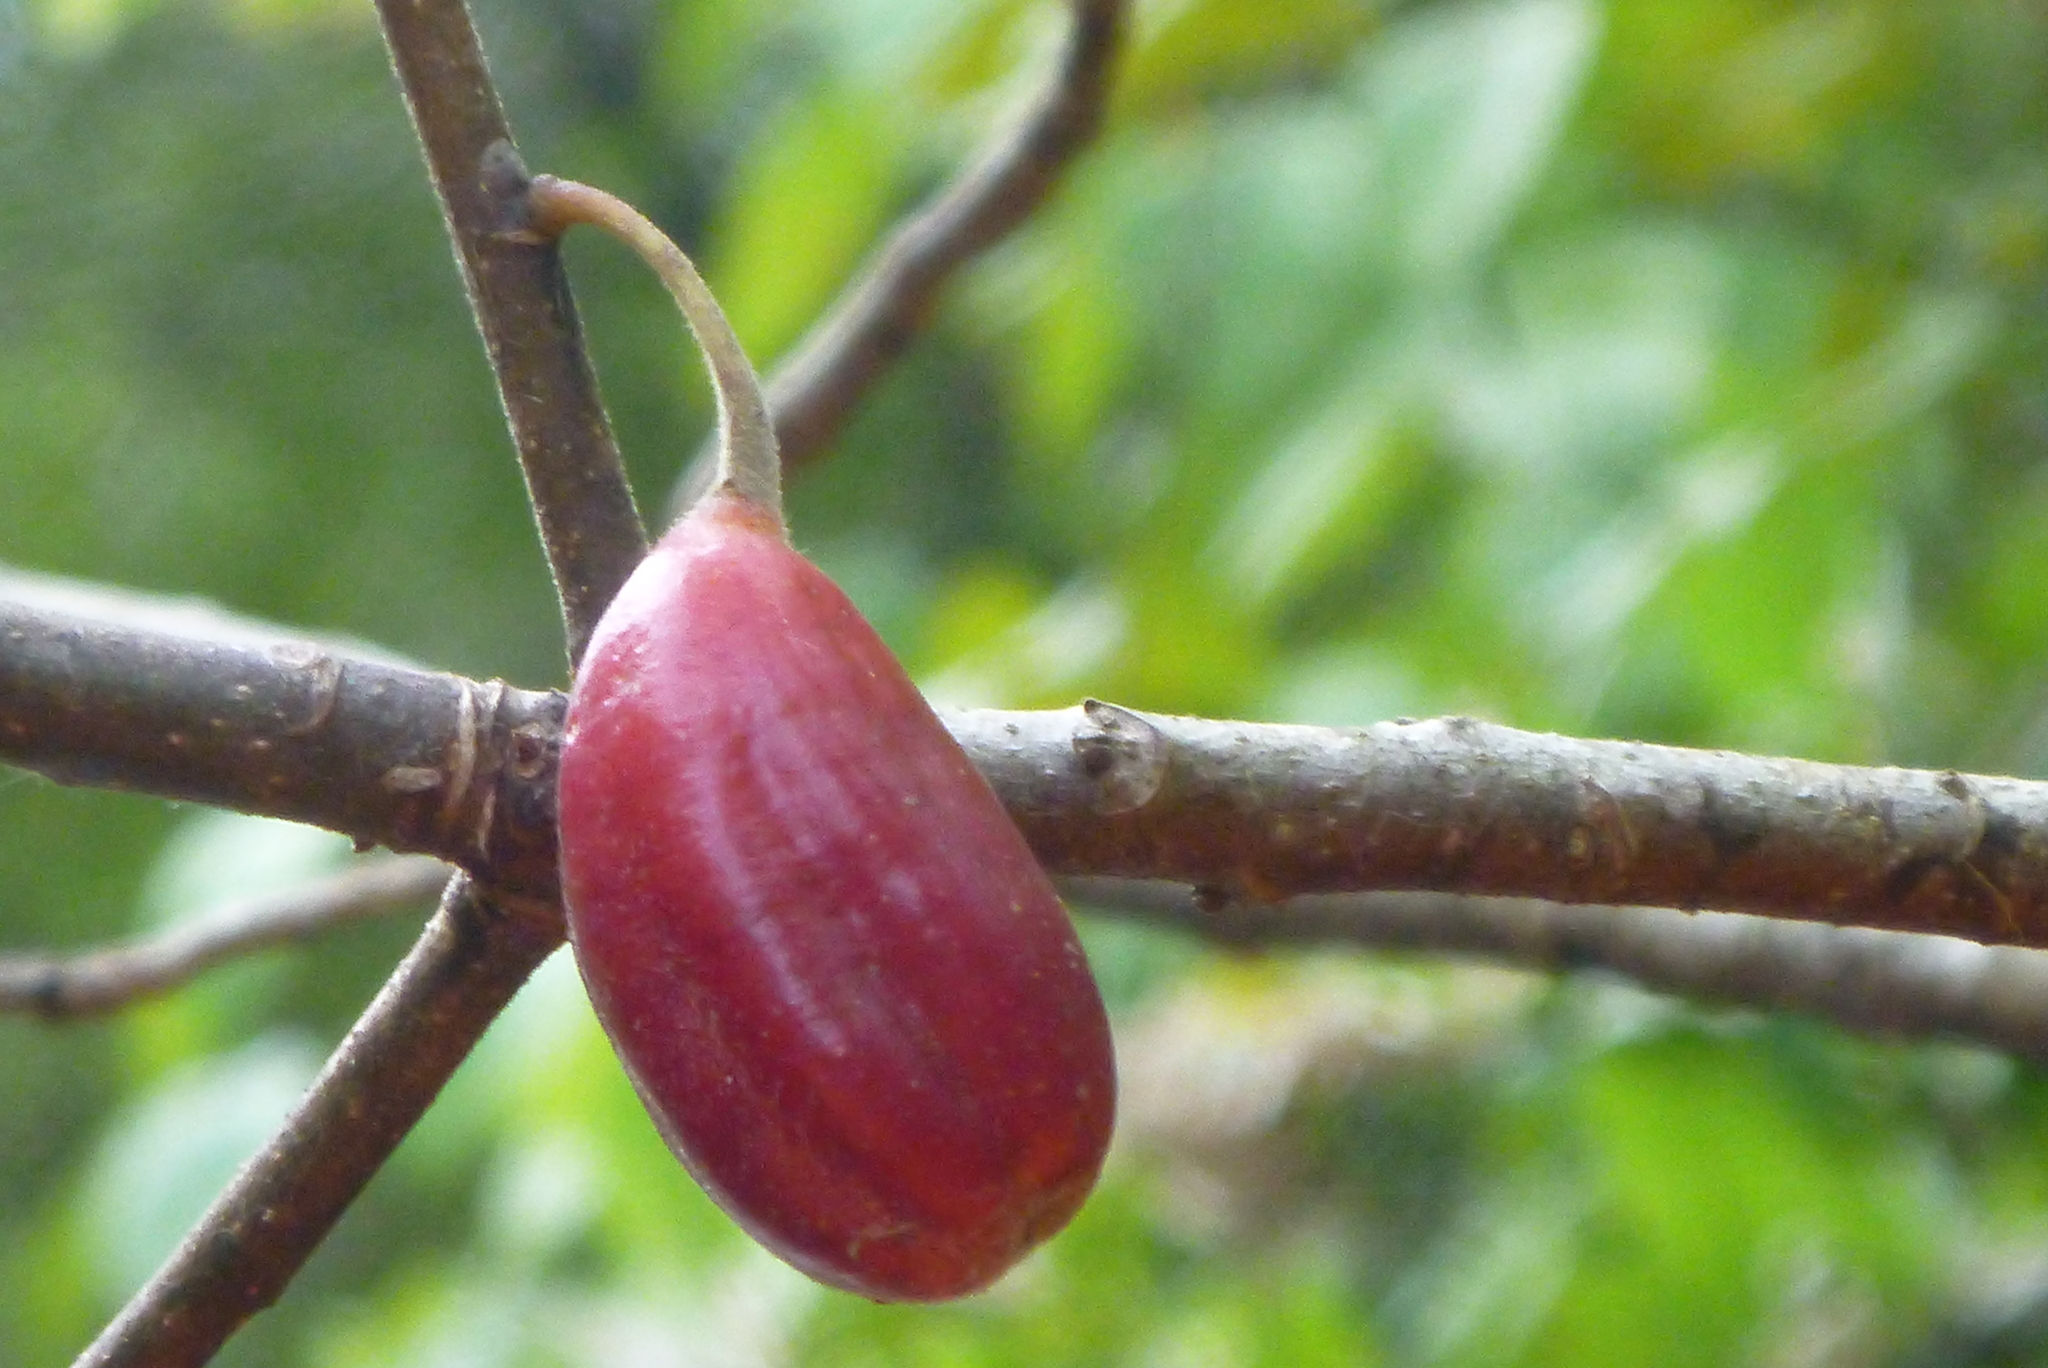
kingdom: Plantae
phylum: Tracheophyta
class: Magnoliopsida
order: Cornales
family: Nyssaceae
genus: Nyssa
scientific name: Nyssa ogeche
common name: Ogeechee tupelo
